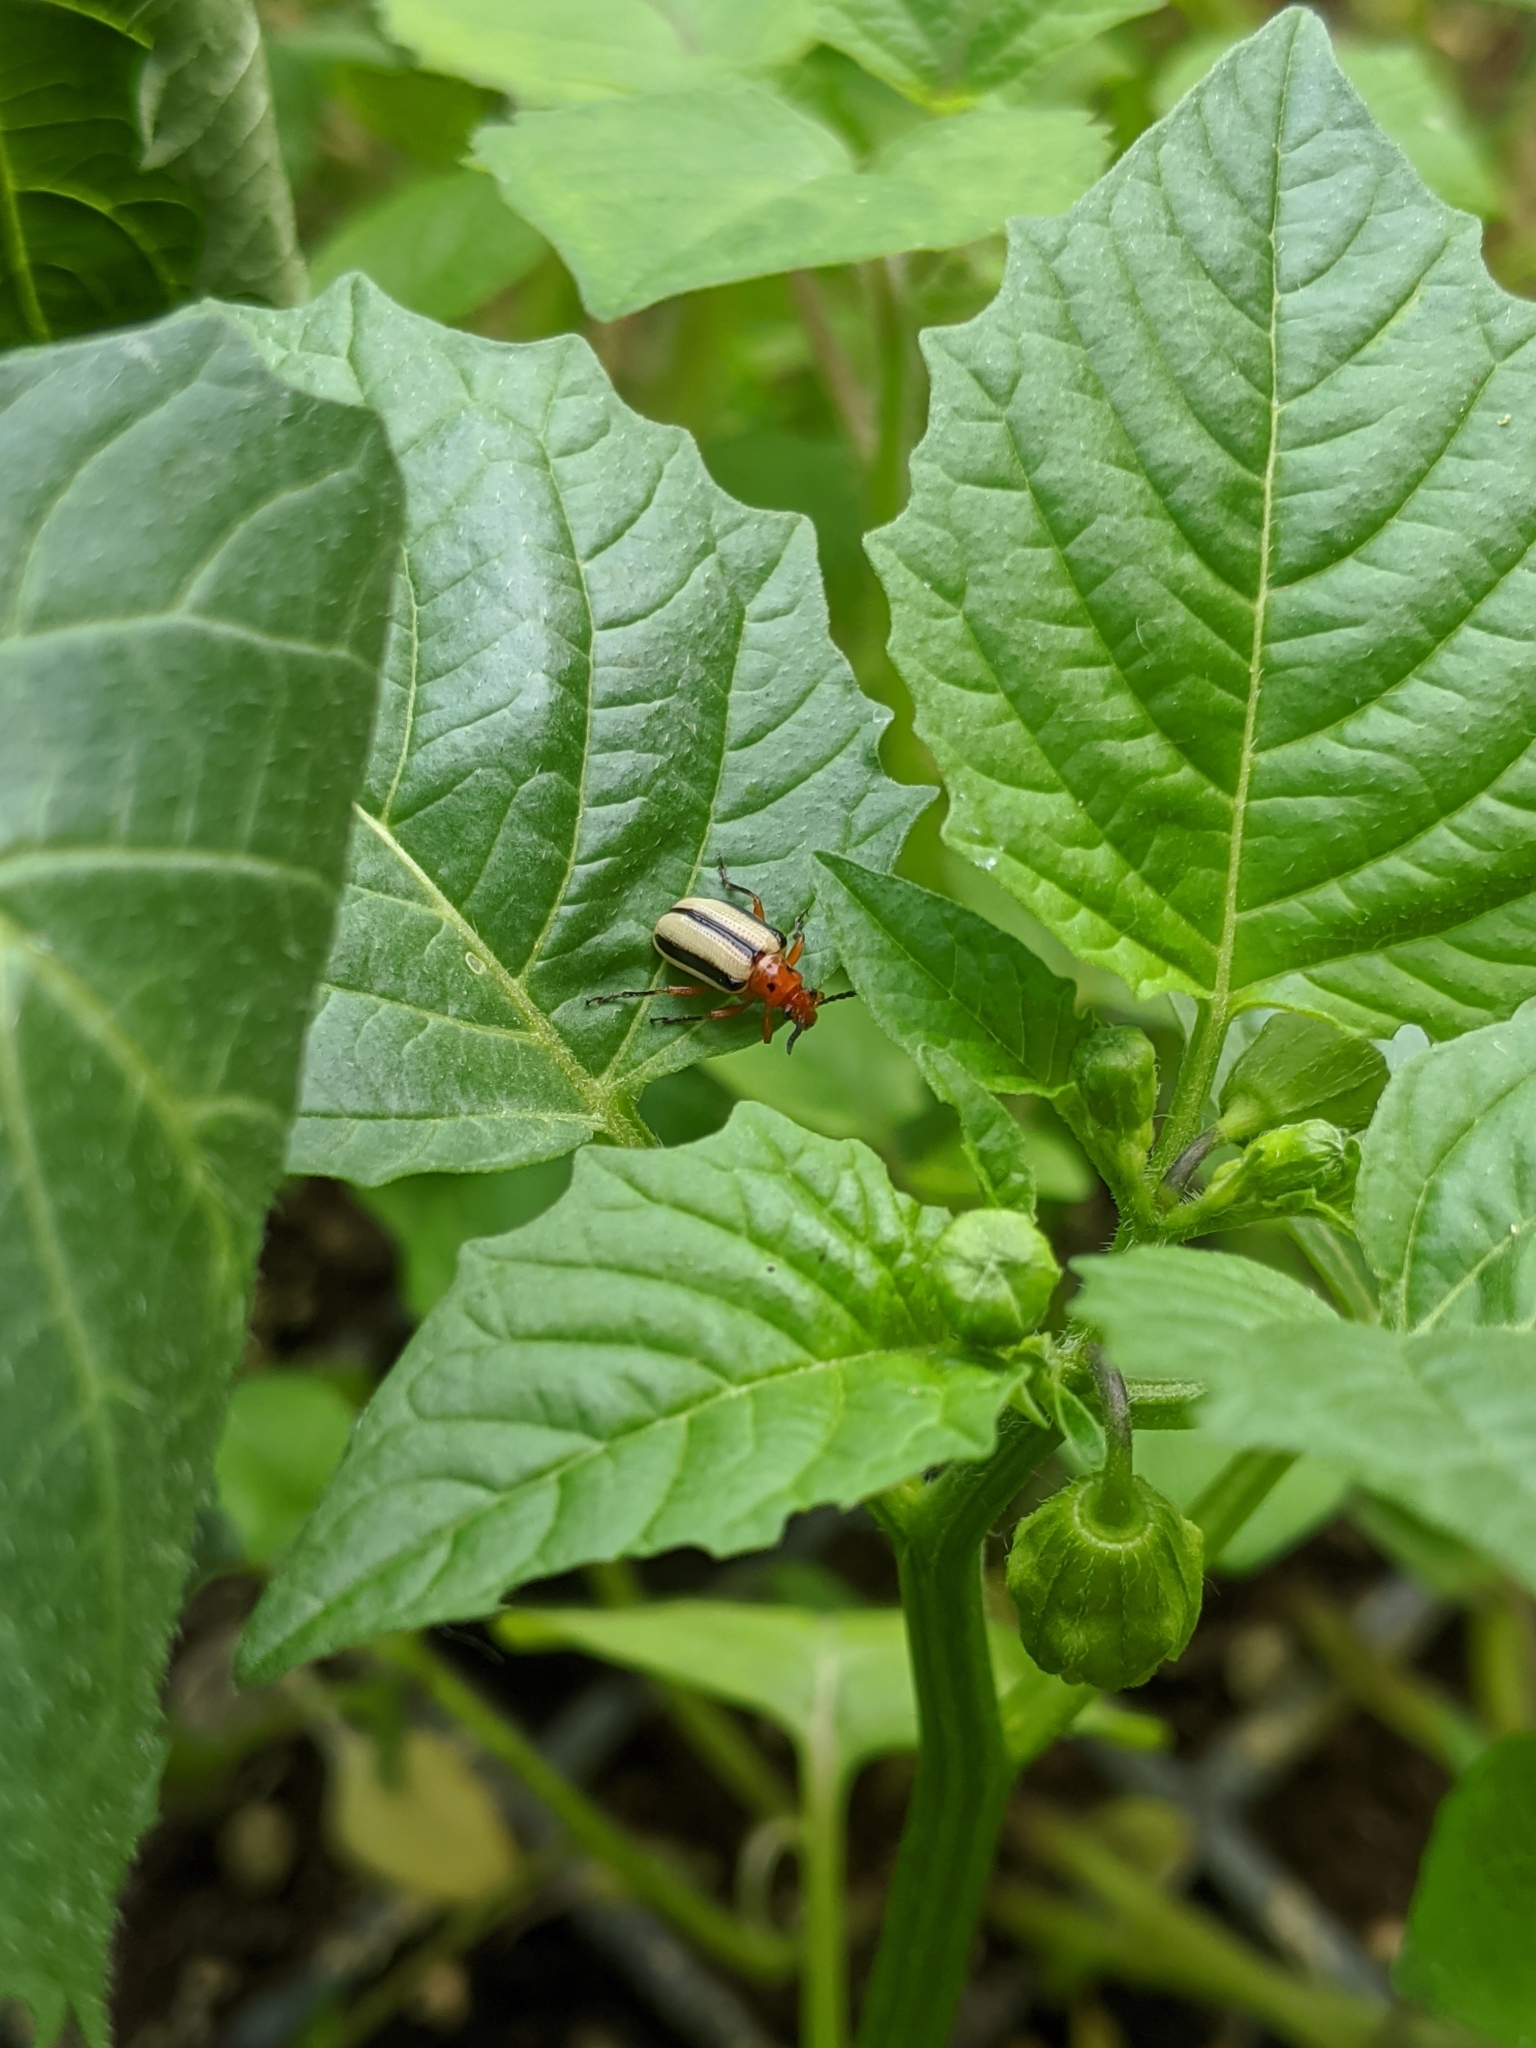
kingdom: Animalia
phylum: Arthropoda
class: Insecta
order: Coleoptera
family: Chrysomelidae
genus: Lema
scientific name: Lema daturaphila
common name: Leaf beetle
